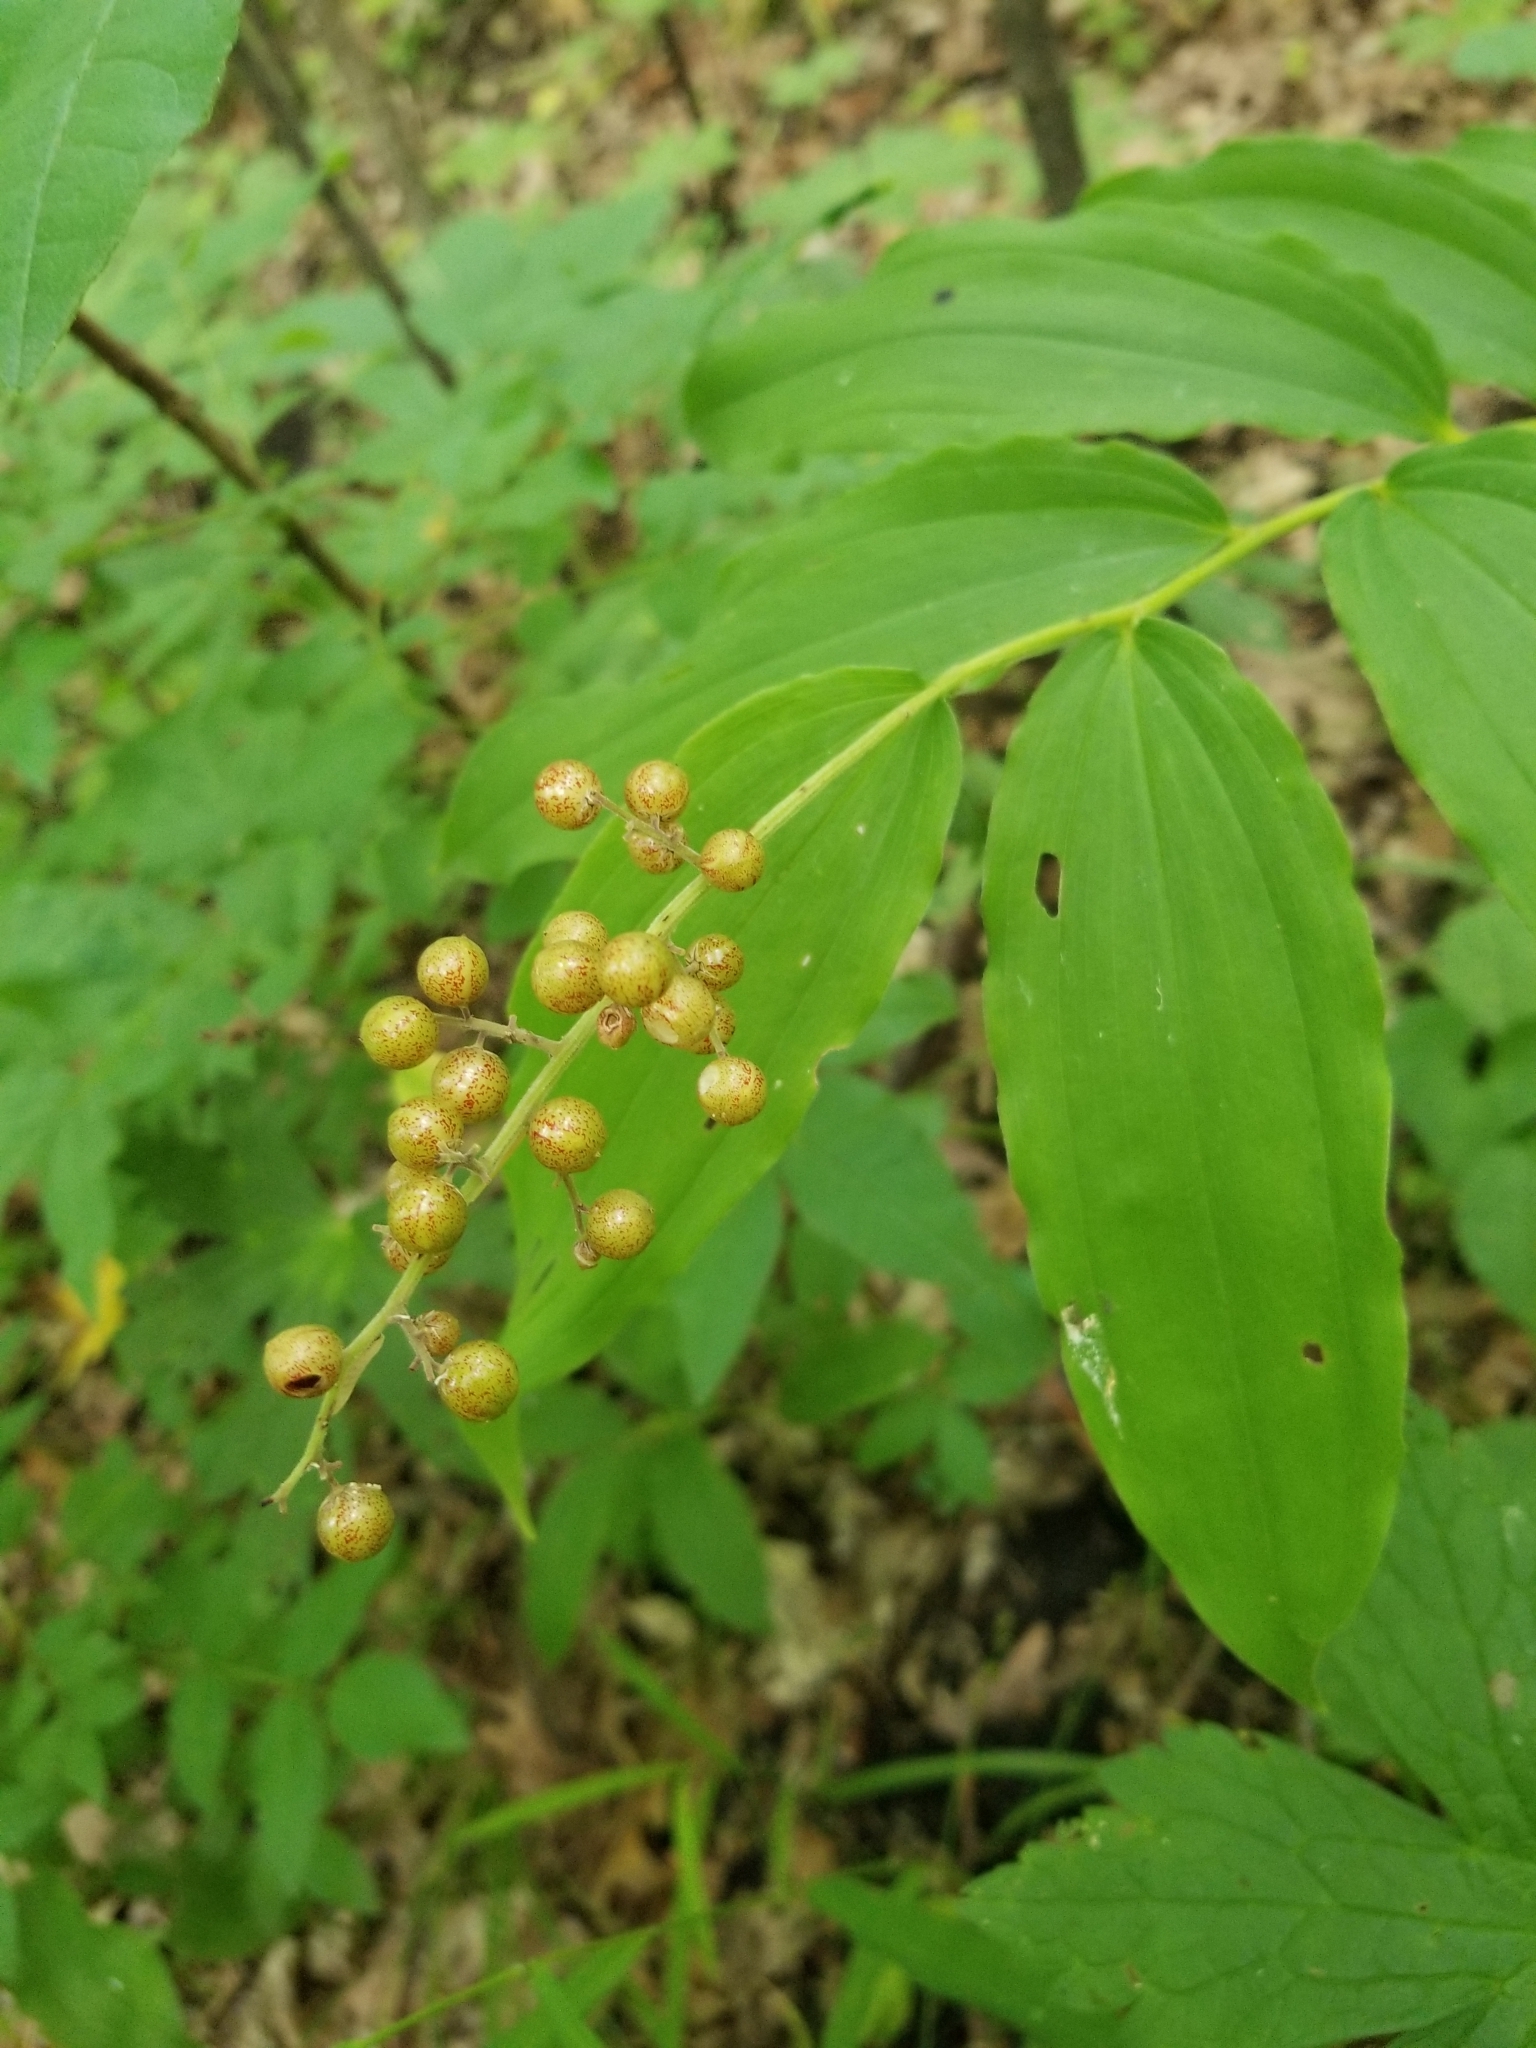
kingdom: Plantae
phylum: Tracheophyta
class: Liliopsida
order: Asparagales
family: Asparagaceae
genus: Maianthemum
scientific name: Maianthemum racemosum
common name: False spikenard
